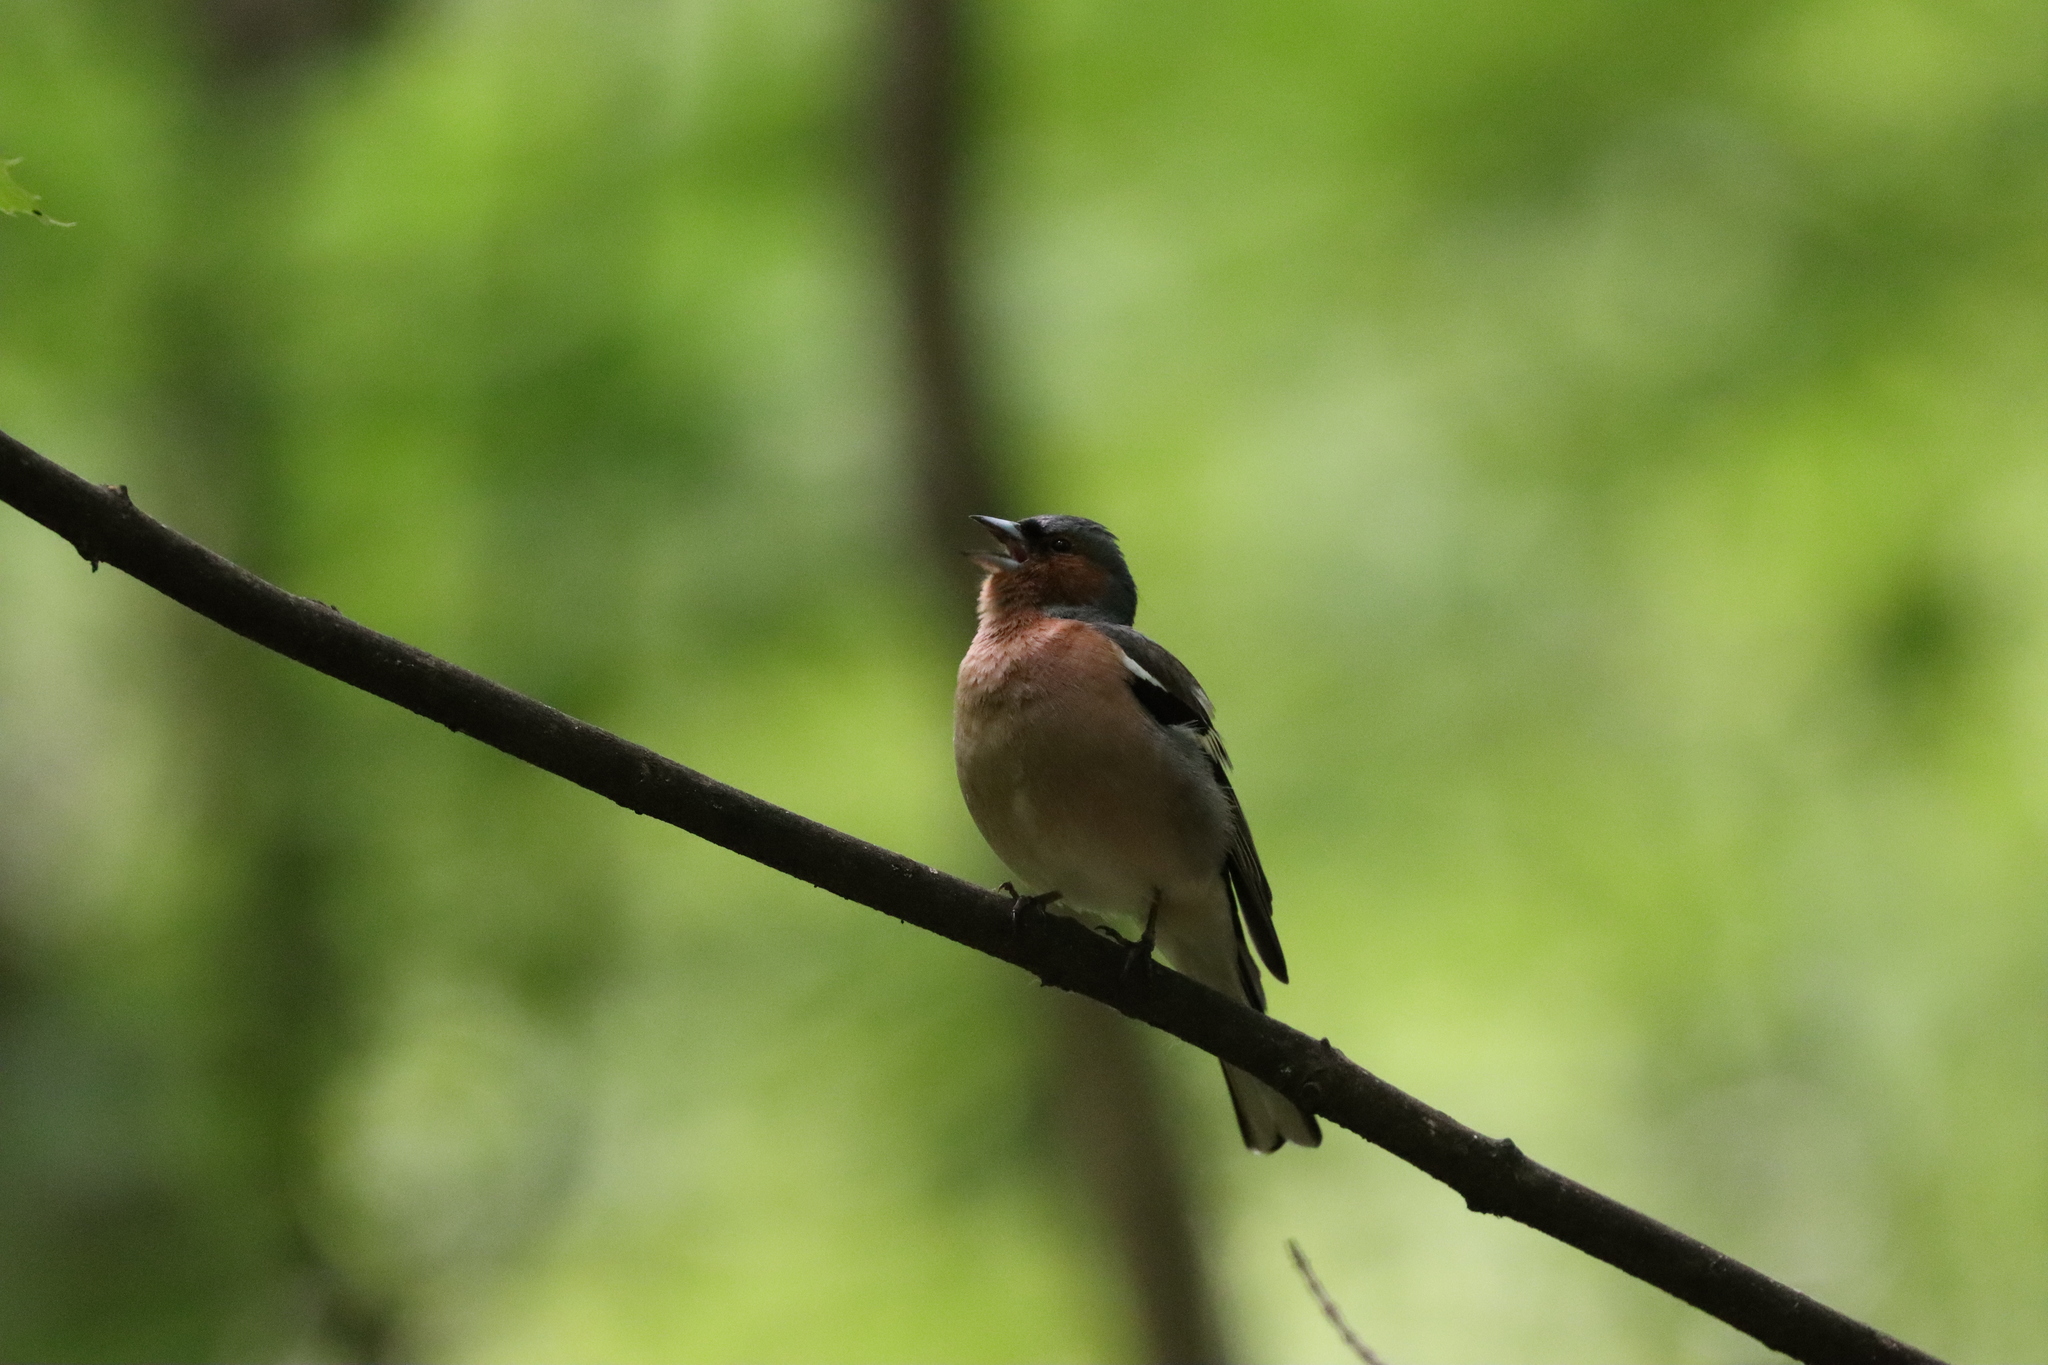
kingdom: Animalia
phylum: Chordata
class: Aves
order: Passeriformes
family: Fringillidae
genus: Fringilla
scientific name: Fringilla coelebs
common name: Common chaffinch
